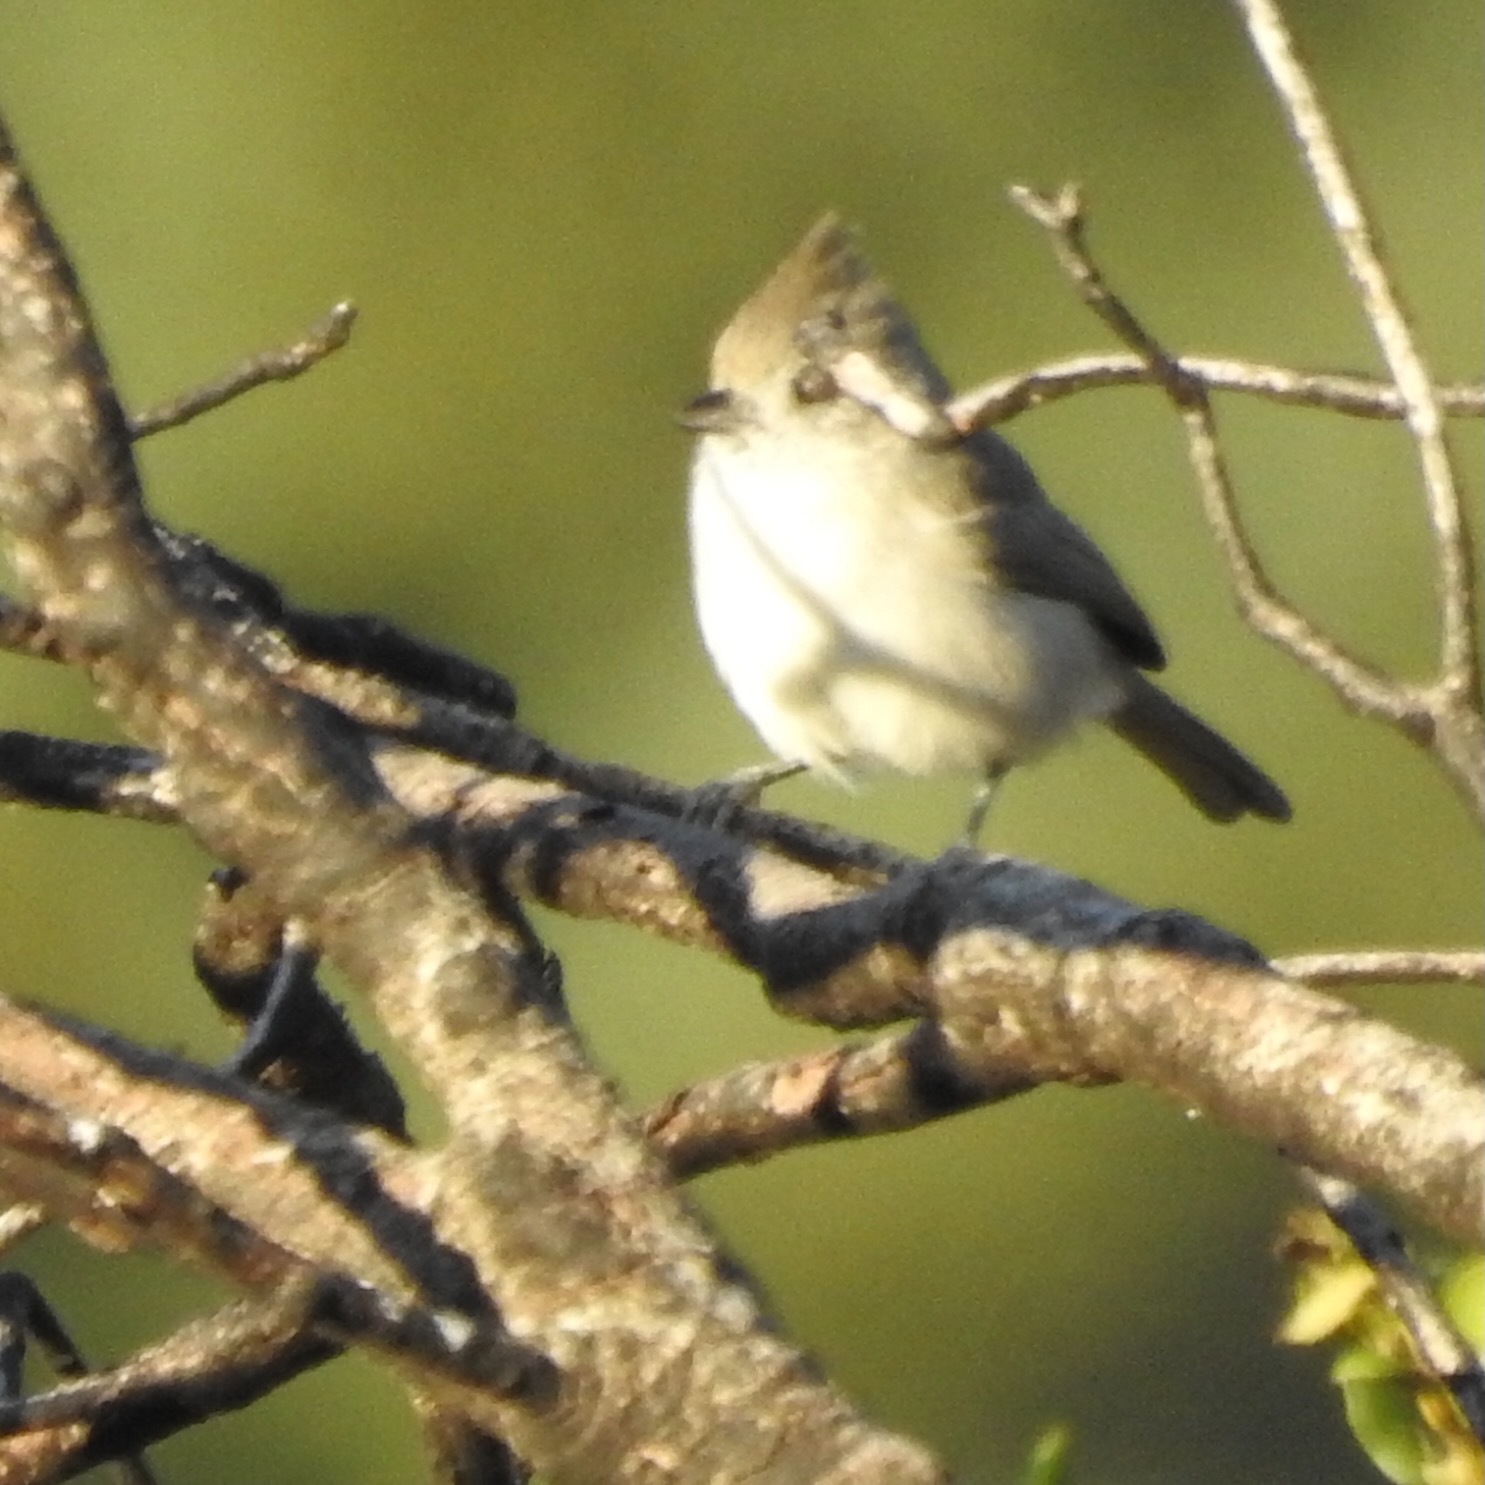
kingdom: Animalia
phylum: Chordata
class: Aves
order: Passeriformes
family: Paridae
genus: Baeolophus
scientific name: Baeolophus inornatus
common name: Oak titmouse
